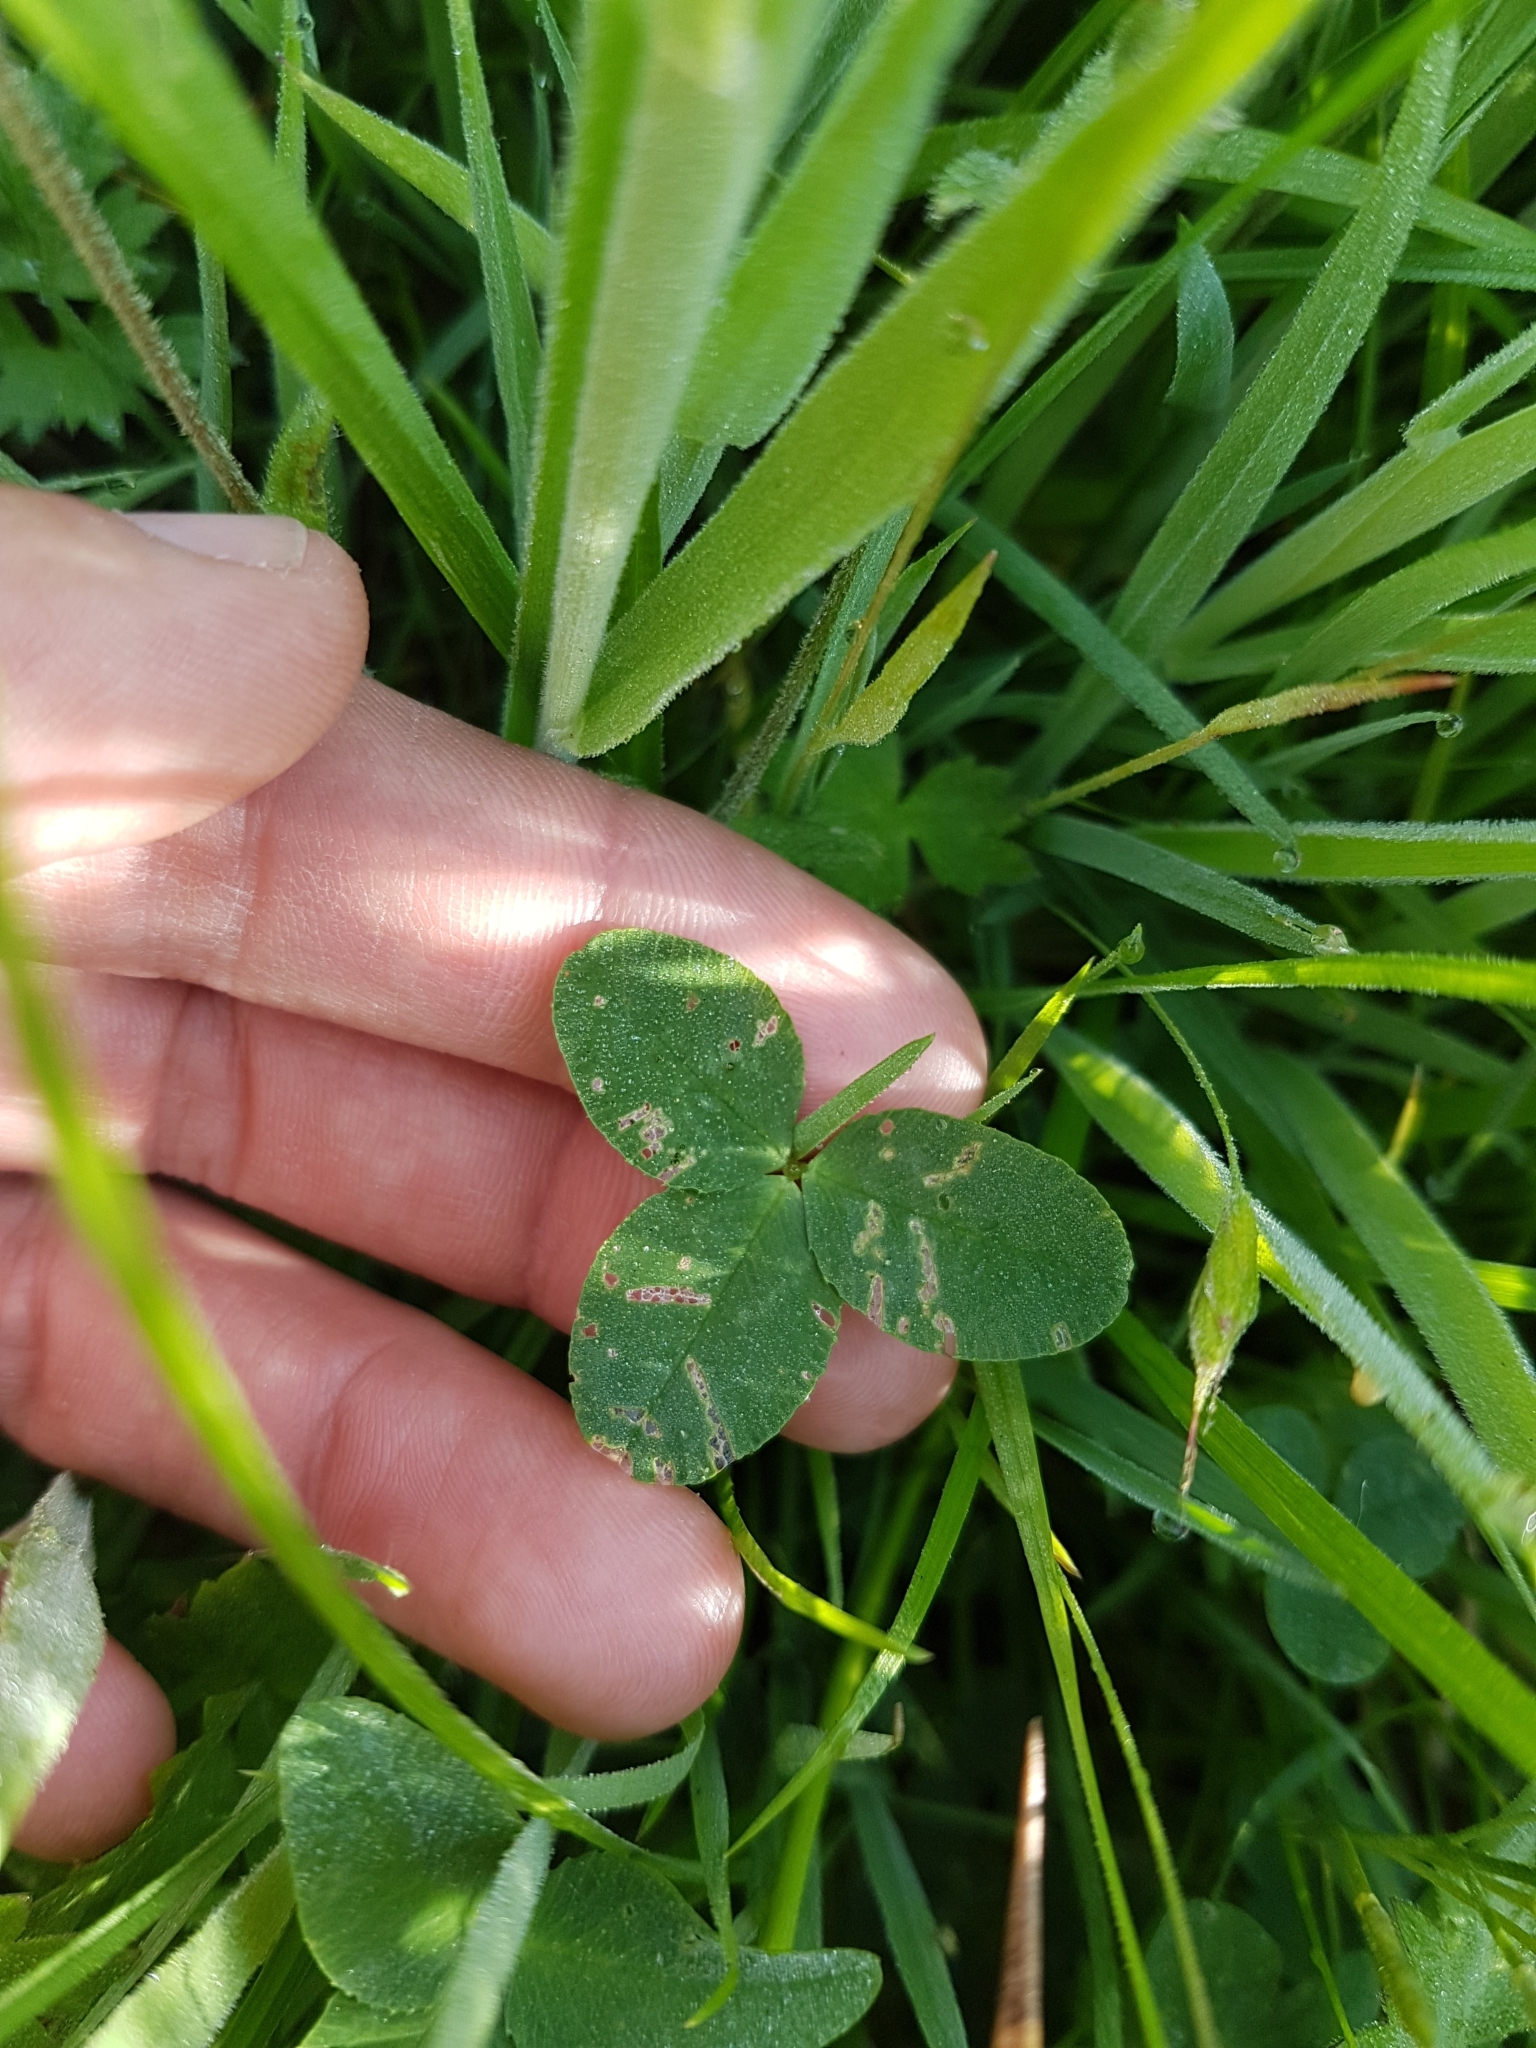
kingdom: Plantae
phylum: Tracheophyta
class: Magnoliopsida
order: Fabales
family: Fabaceae
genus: Trifolium
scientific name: Trifolium repens
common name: White clover
